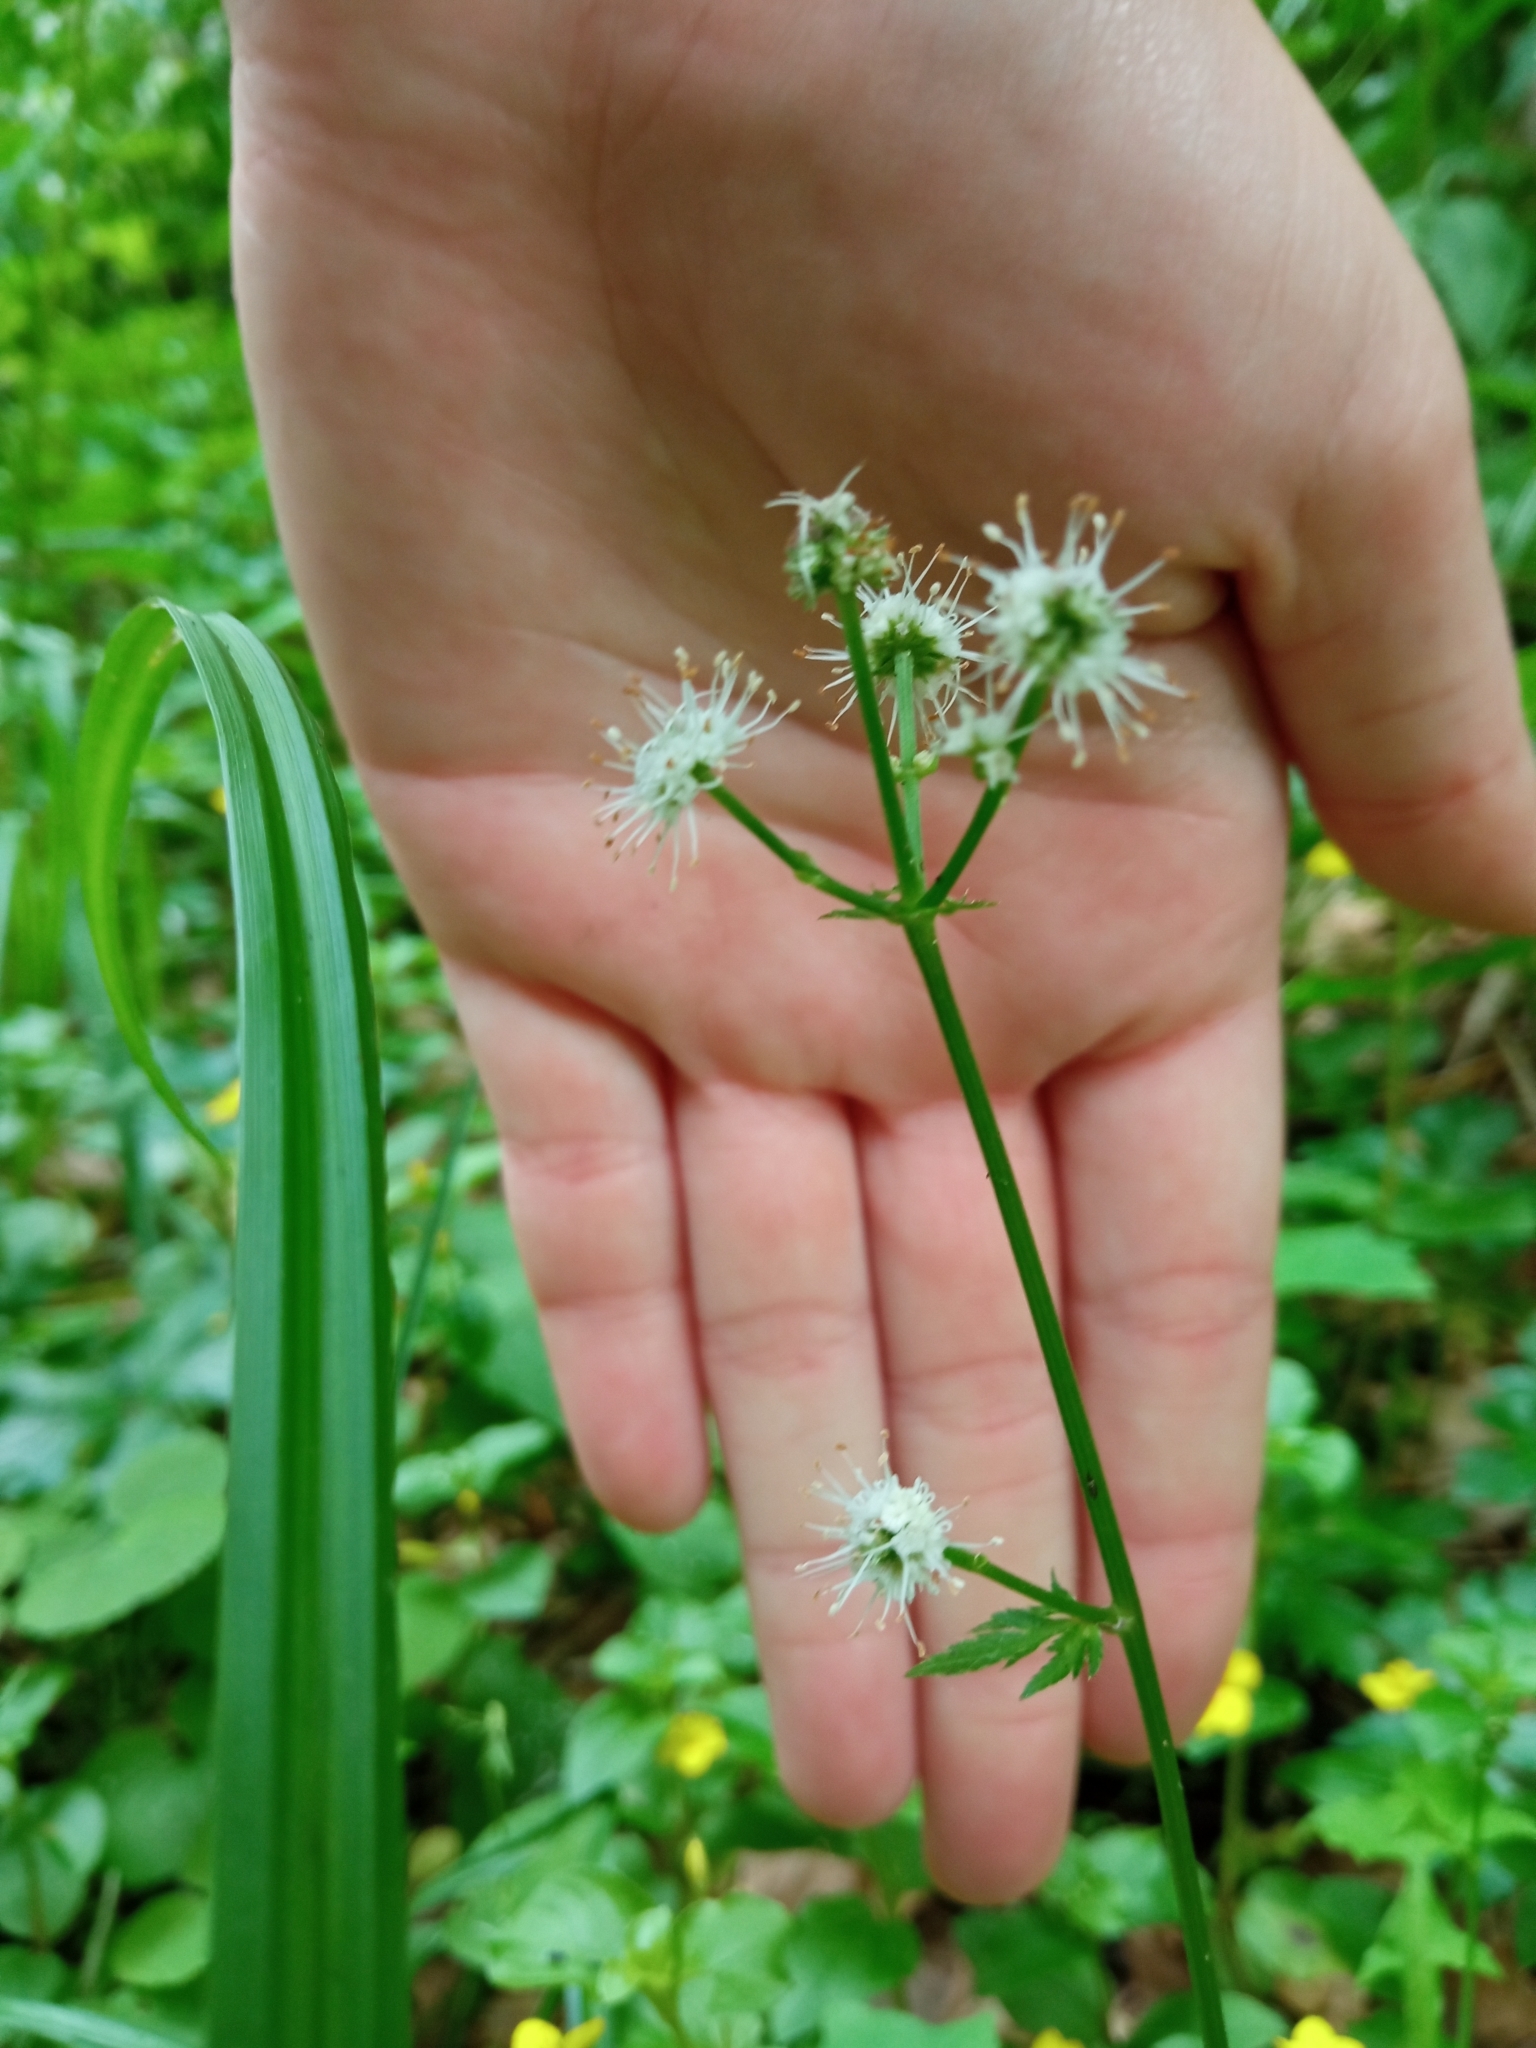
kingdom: Plantae
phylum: Tracheophyta
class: Magnoliopsida
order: Apiales
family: Apiaceae
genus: Sanicula
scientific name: Sanicula europaea
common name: Sanicle
